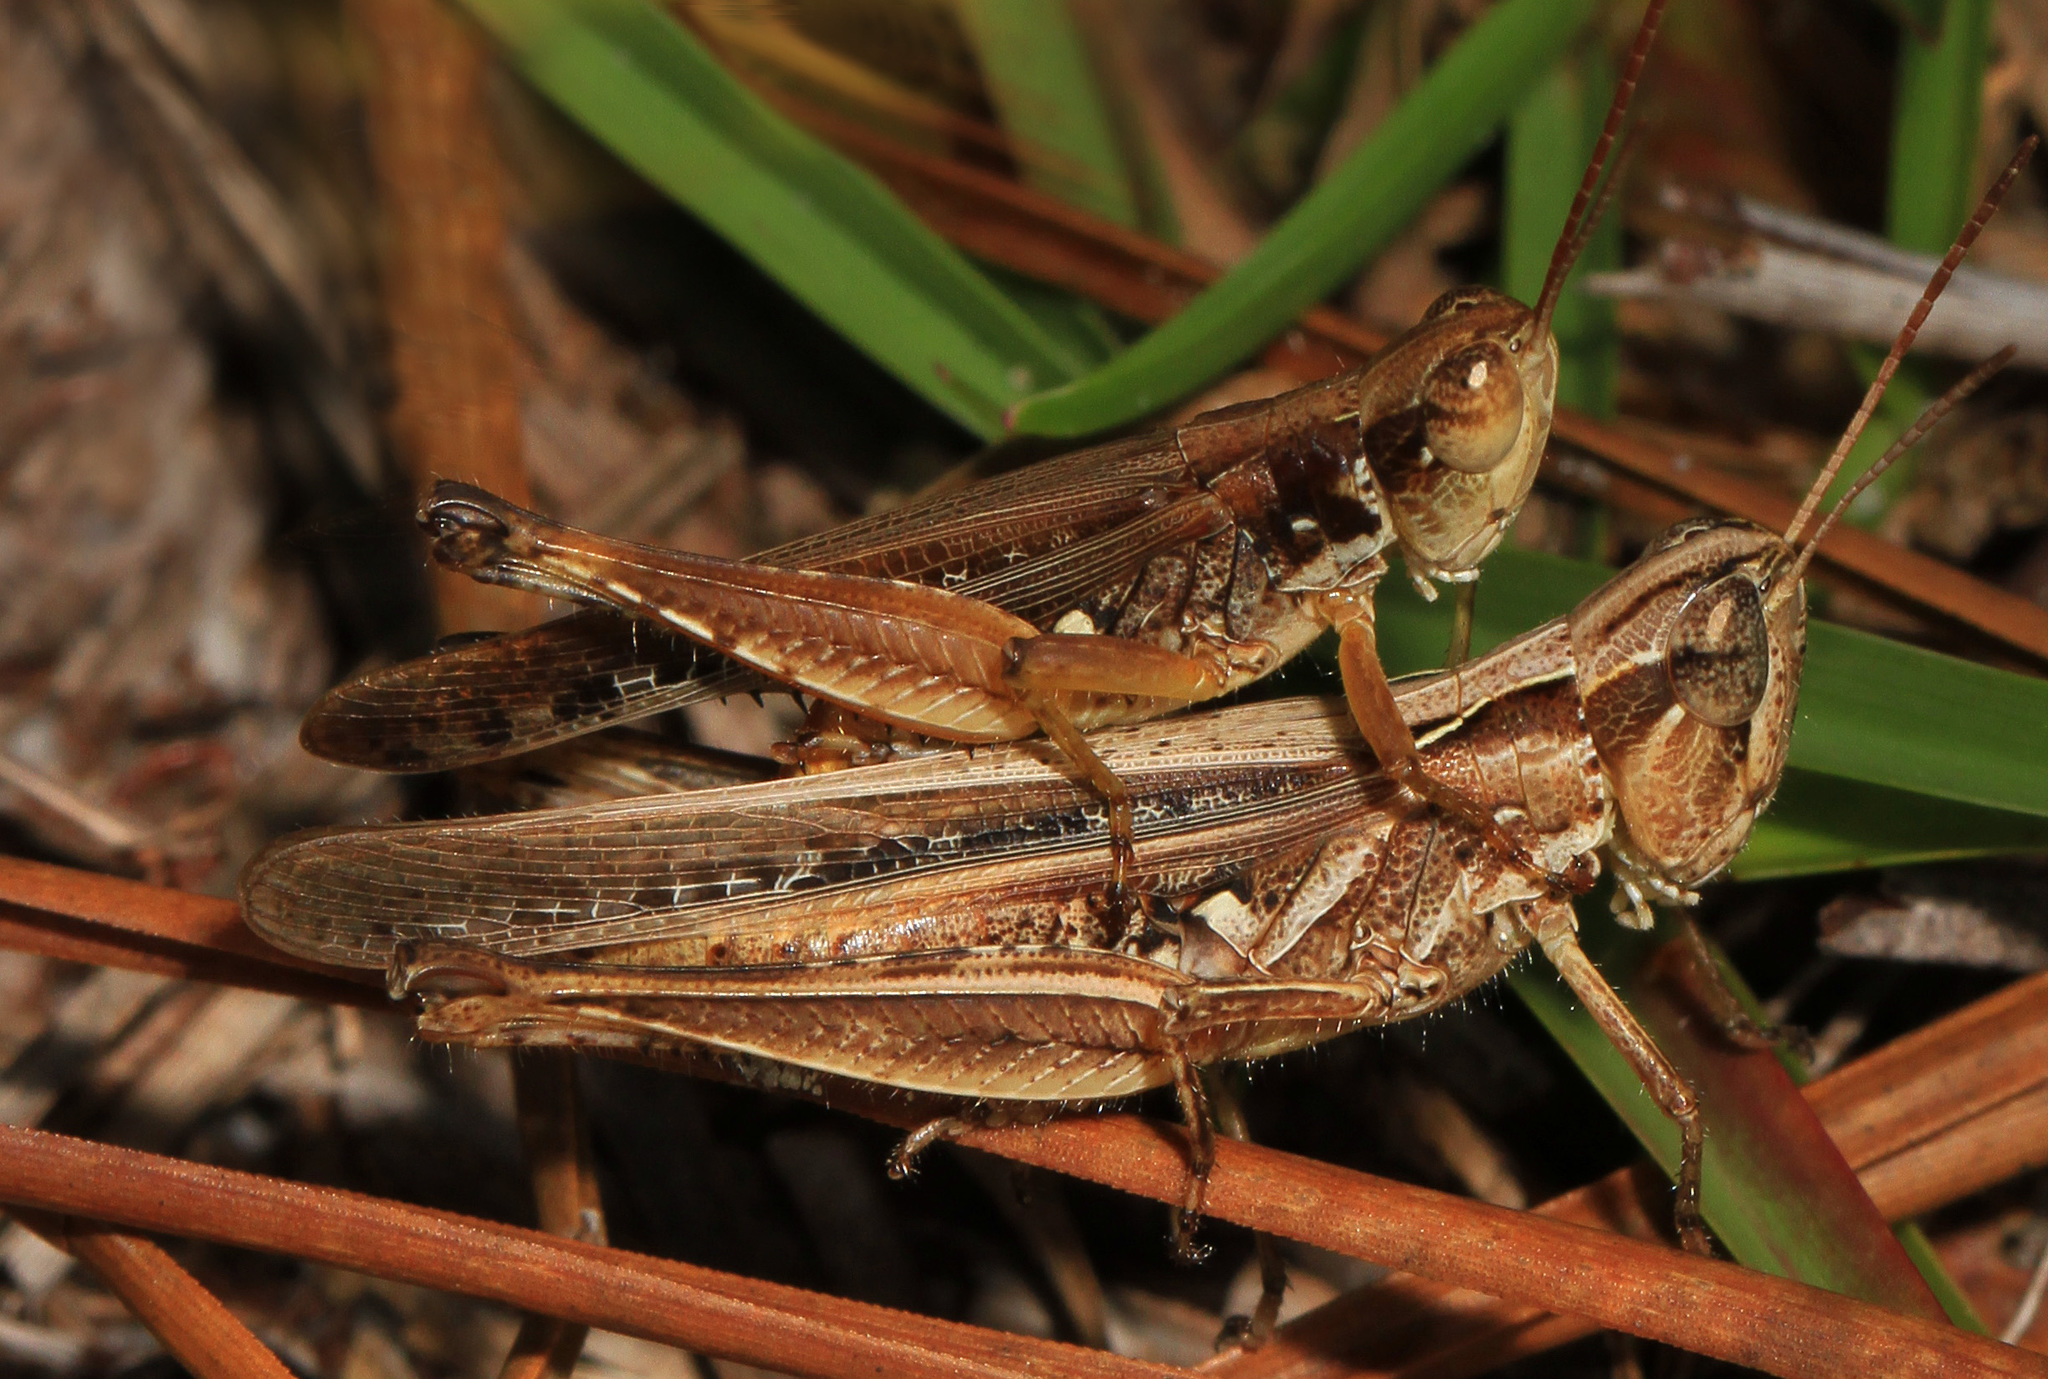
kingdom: Animalia
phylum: Arthropoda
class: Insecta
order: Orthoptera
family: Acrididae
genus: Orphulella
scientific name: Orphulella pelidna
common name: Spotted-wing grasshopper
